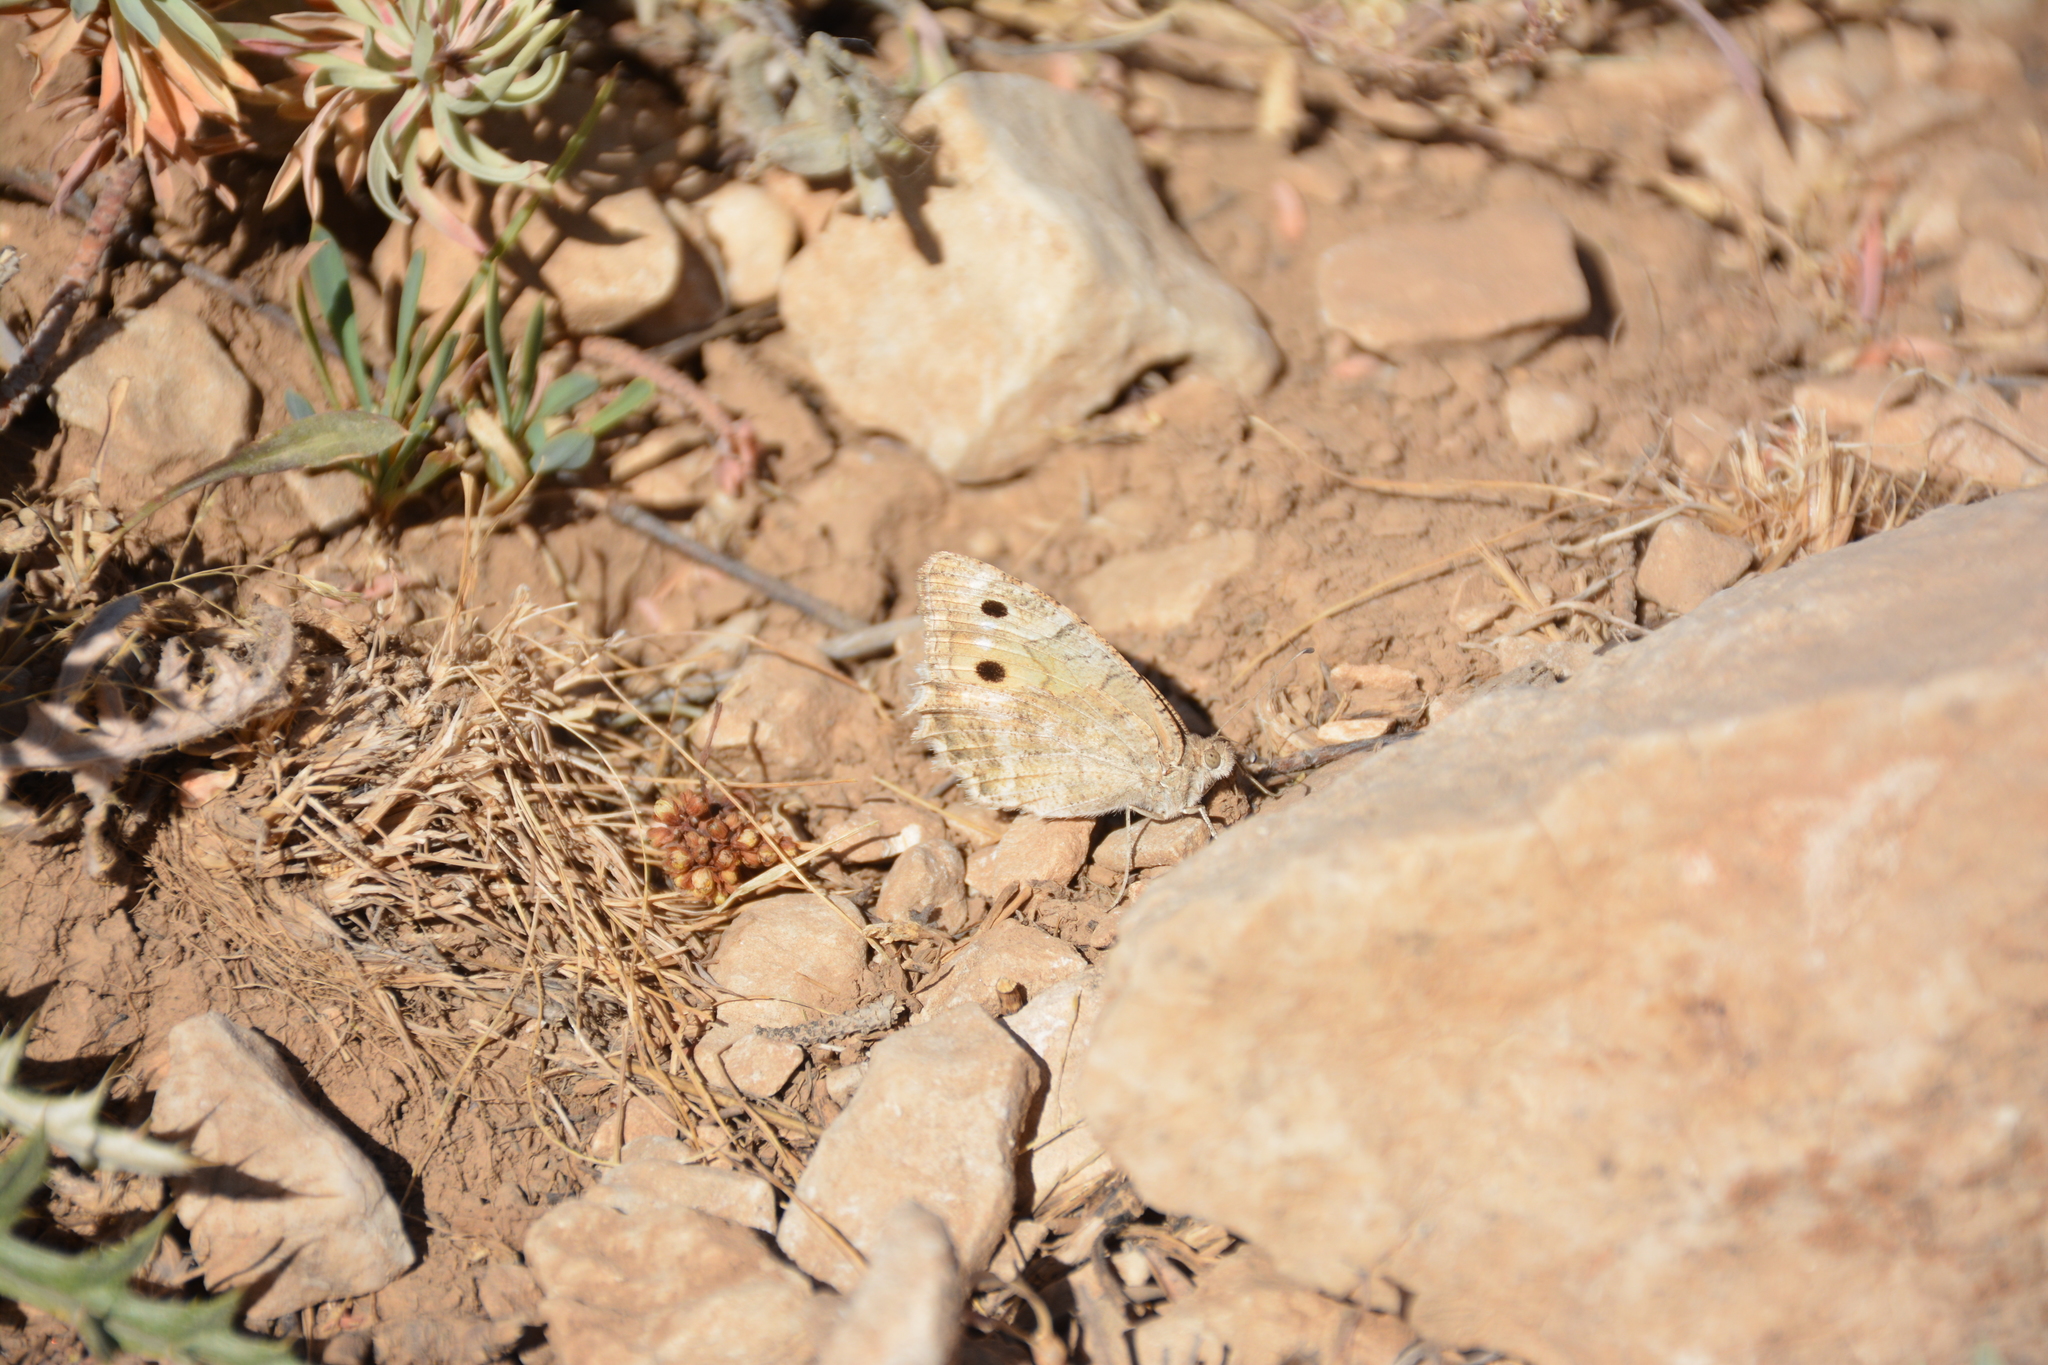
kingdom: Animalia
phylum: Arthropoda
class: Insecta
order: Lepidoptera
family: Nymphalidae
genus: Pseudochazara
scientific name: Pseudochazara pelopea
